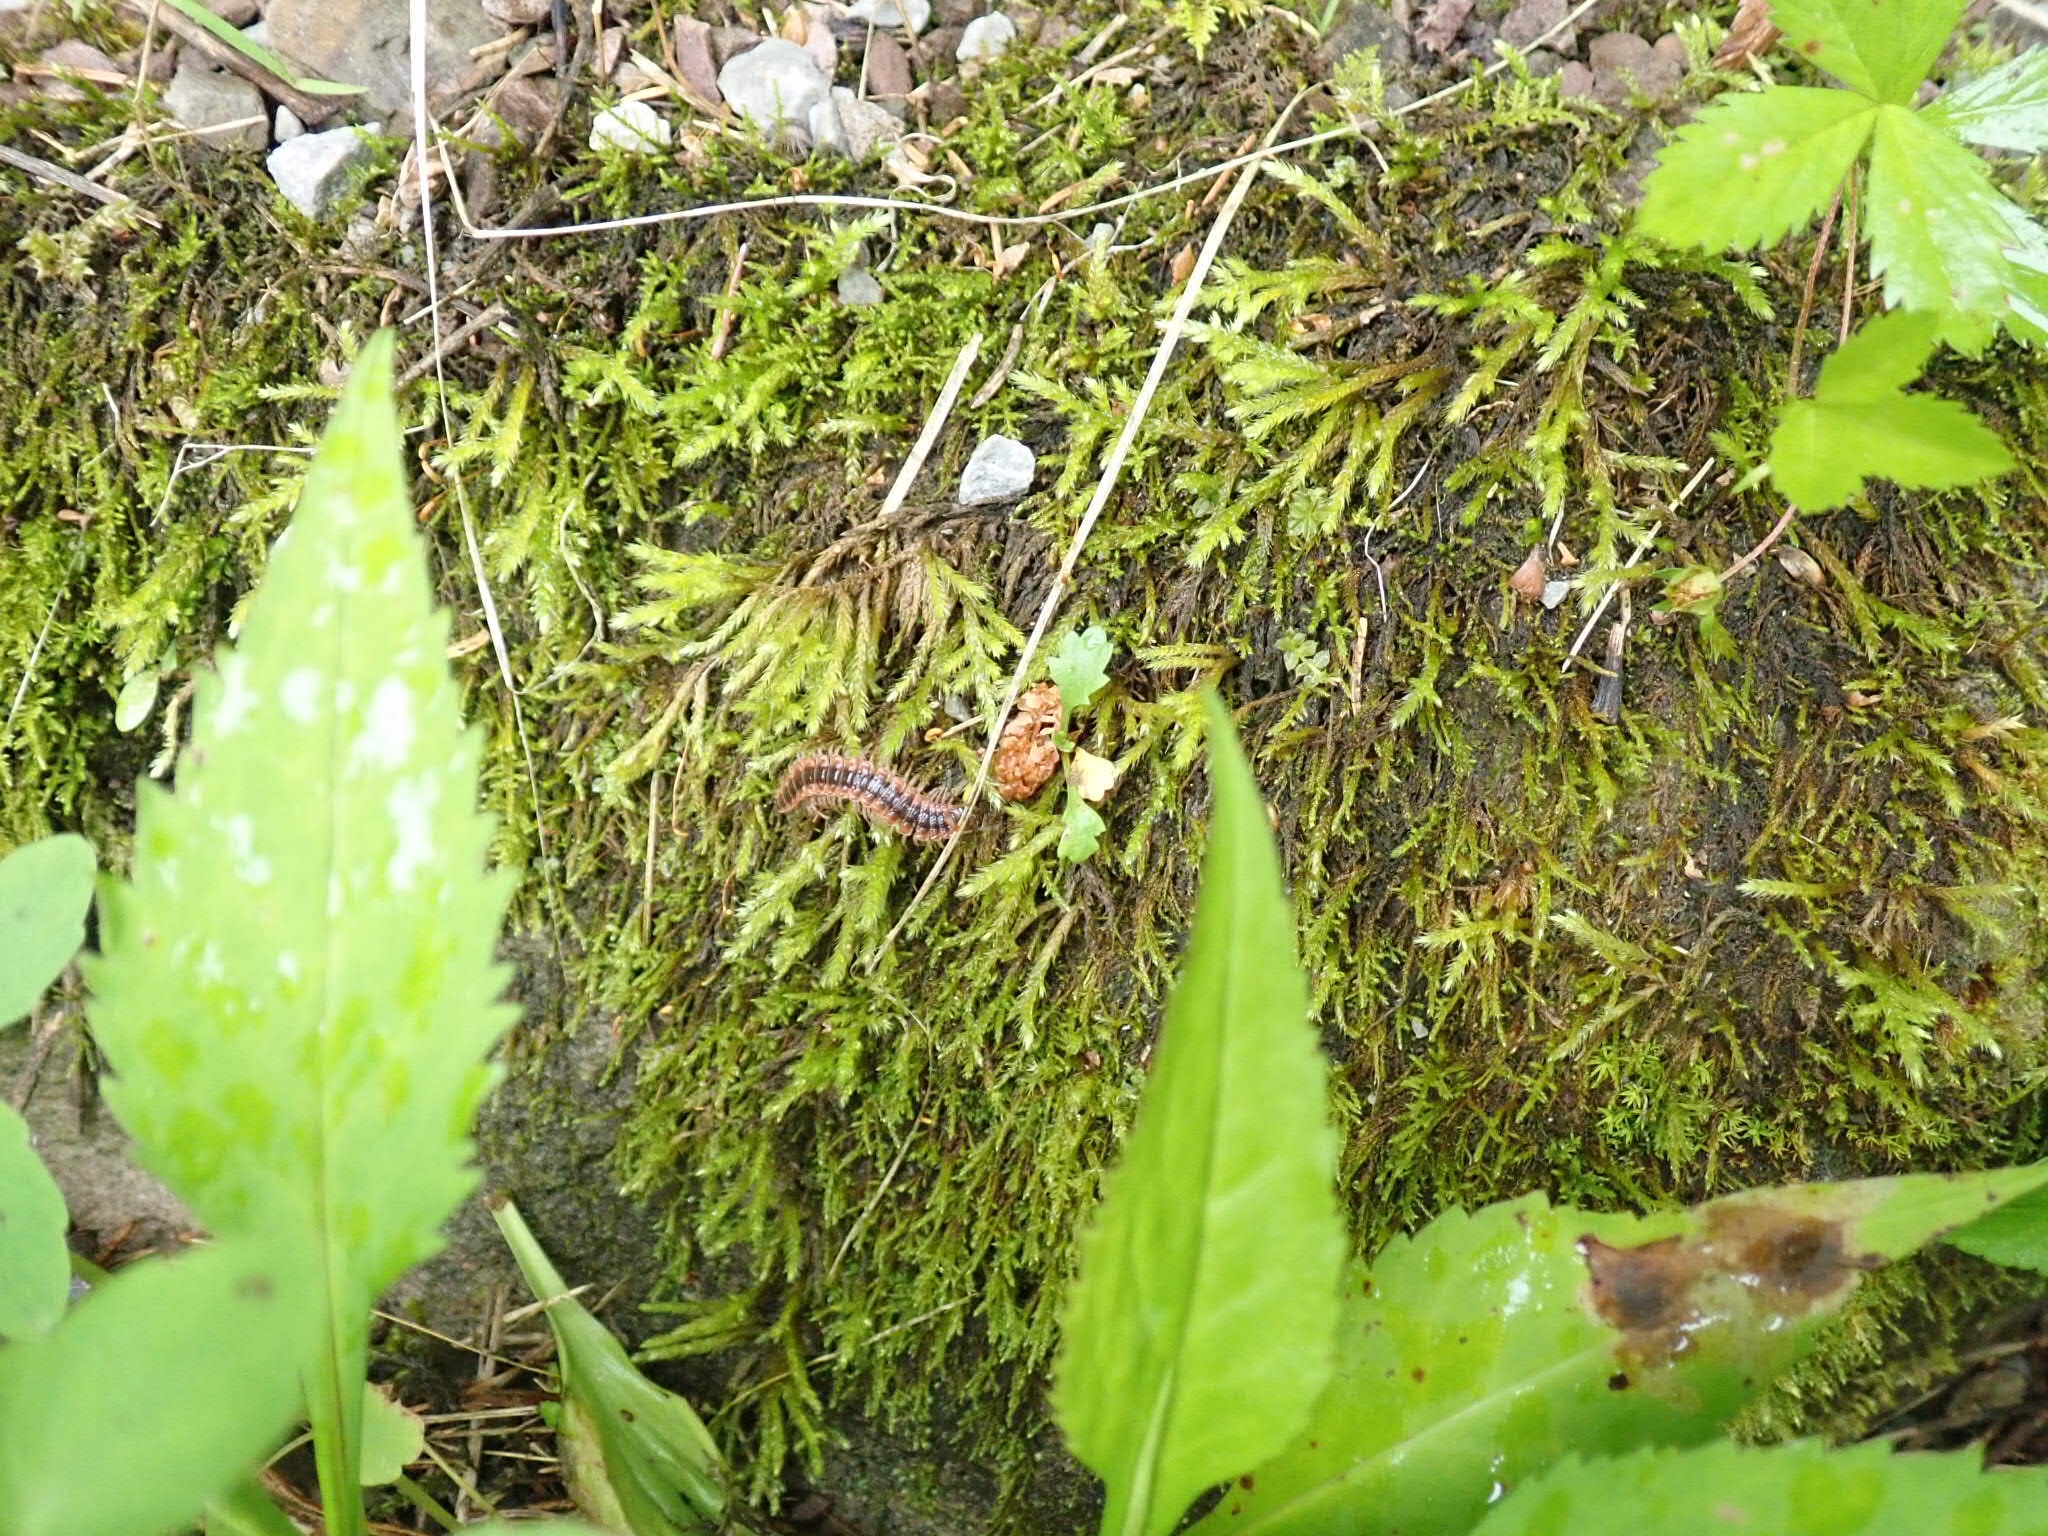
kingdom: Animalia
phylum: Arthropoda
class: Diplopoda
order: Polydesmida
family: Polydesmidae
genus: Pseudopolydesmus
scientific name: Pseudopolydesmus canadensis
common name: Canadian flat-back millipede
